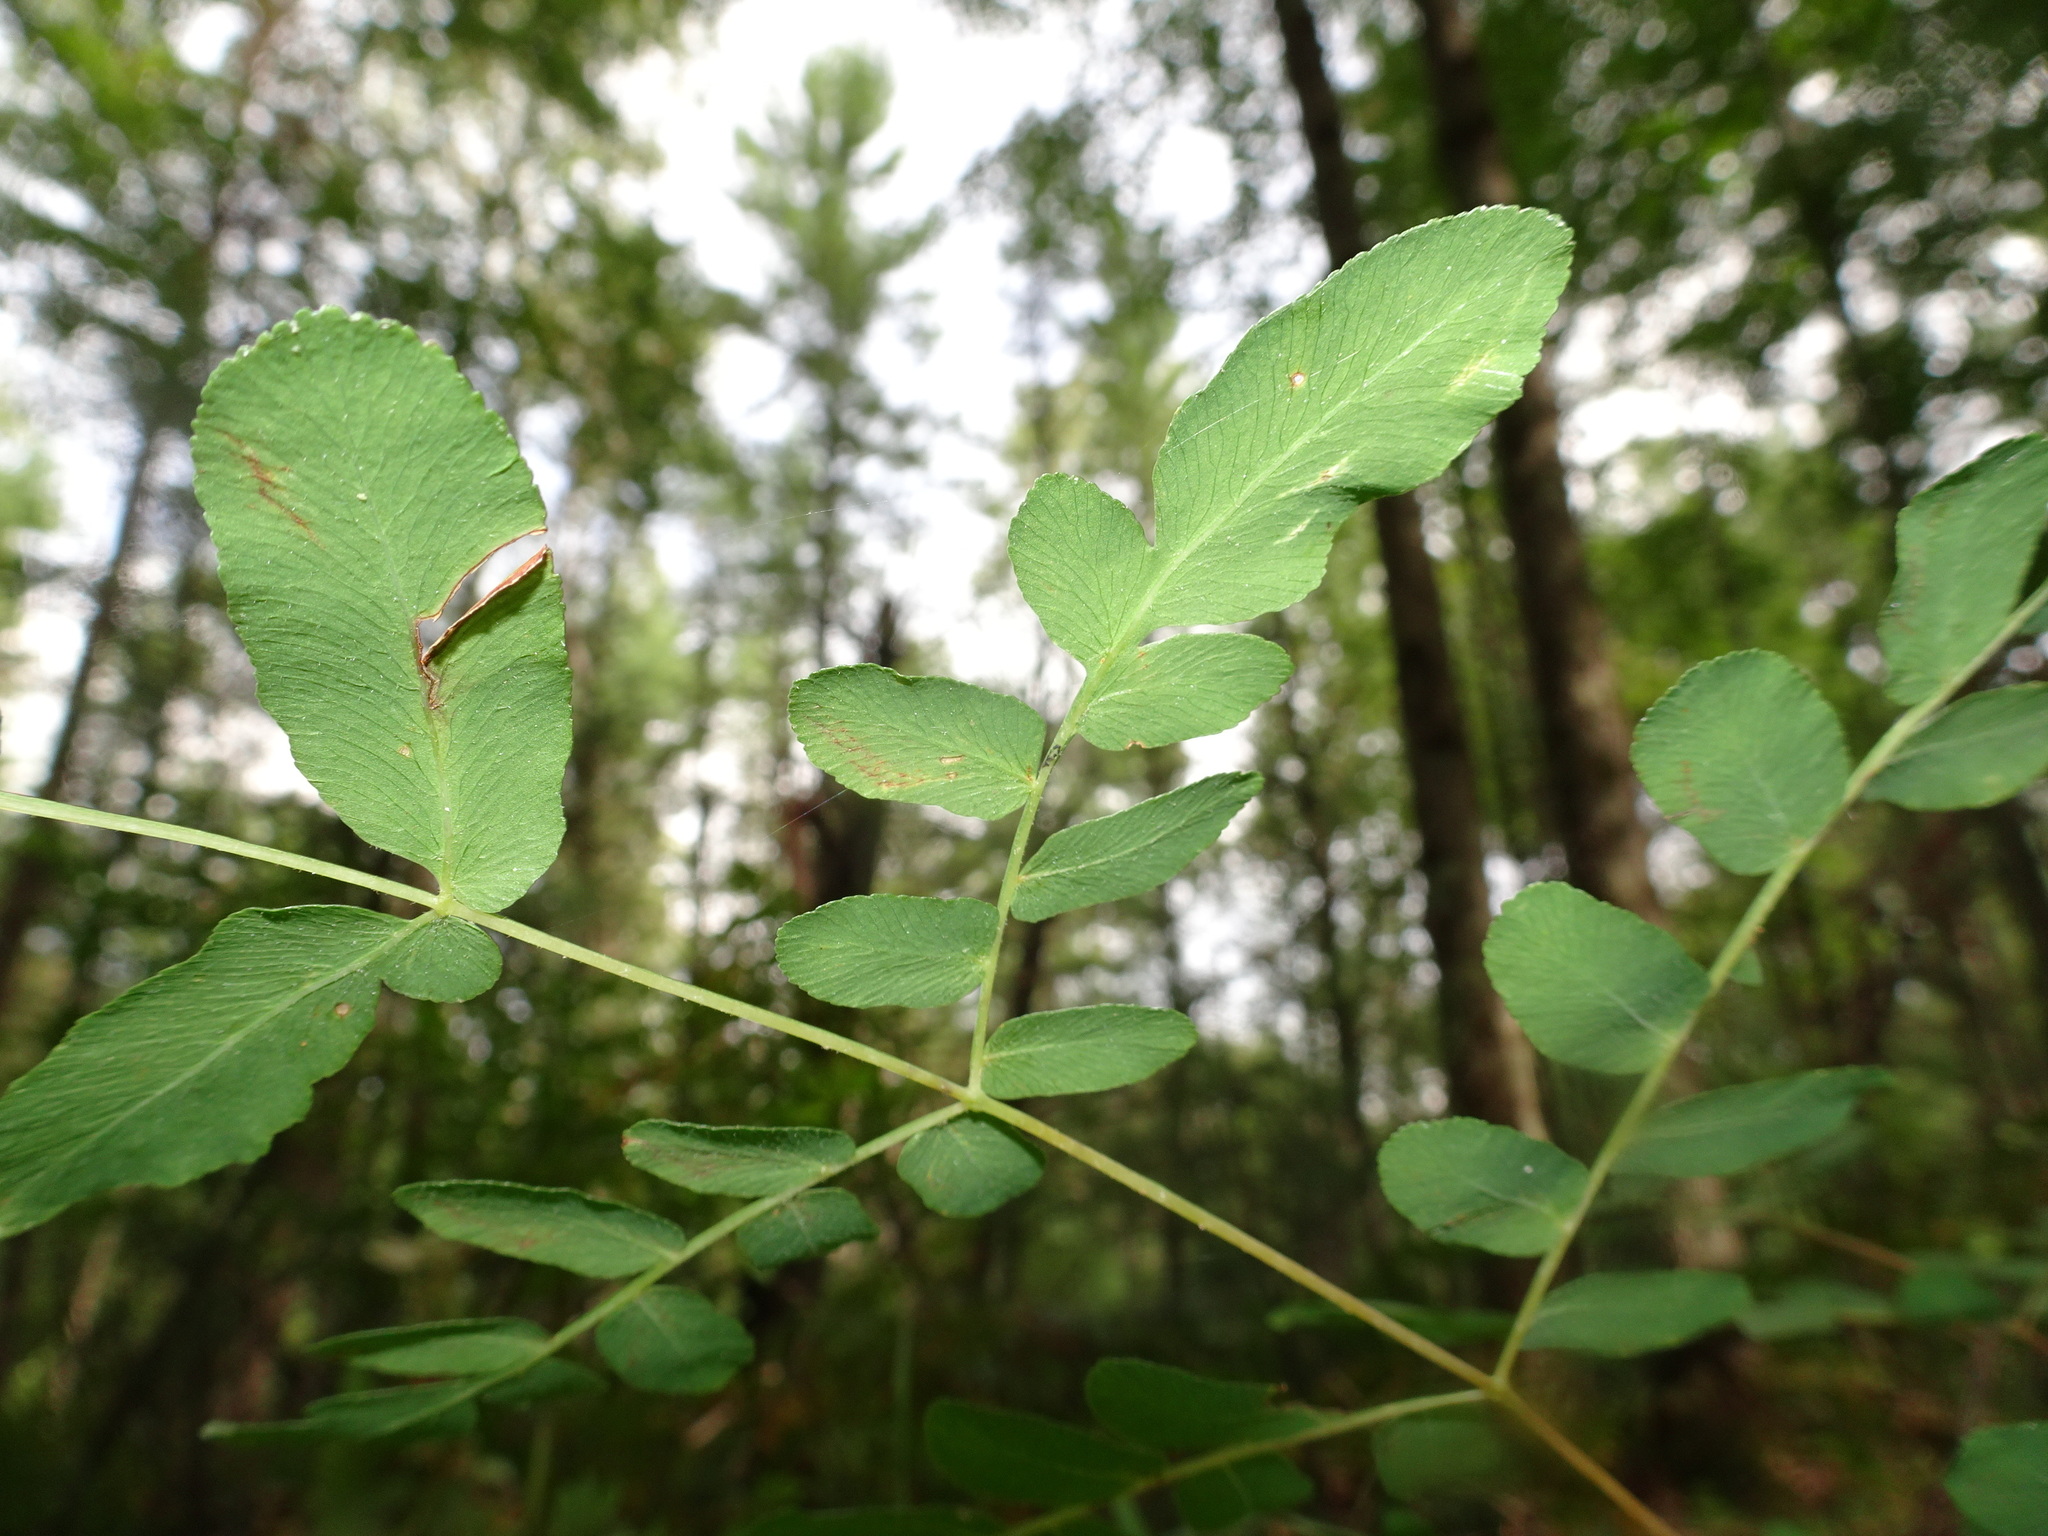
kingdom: Plantae
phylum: Tracheophyta
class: Polypodiopsida
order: Osmundales
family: Osmundaceae
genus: Osmunda
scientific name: Osmunda spectabilis
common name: American royal fern
